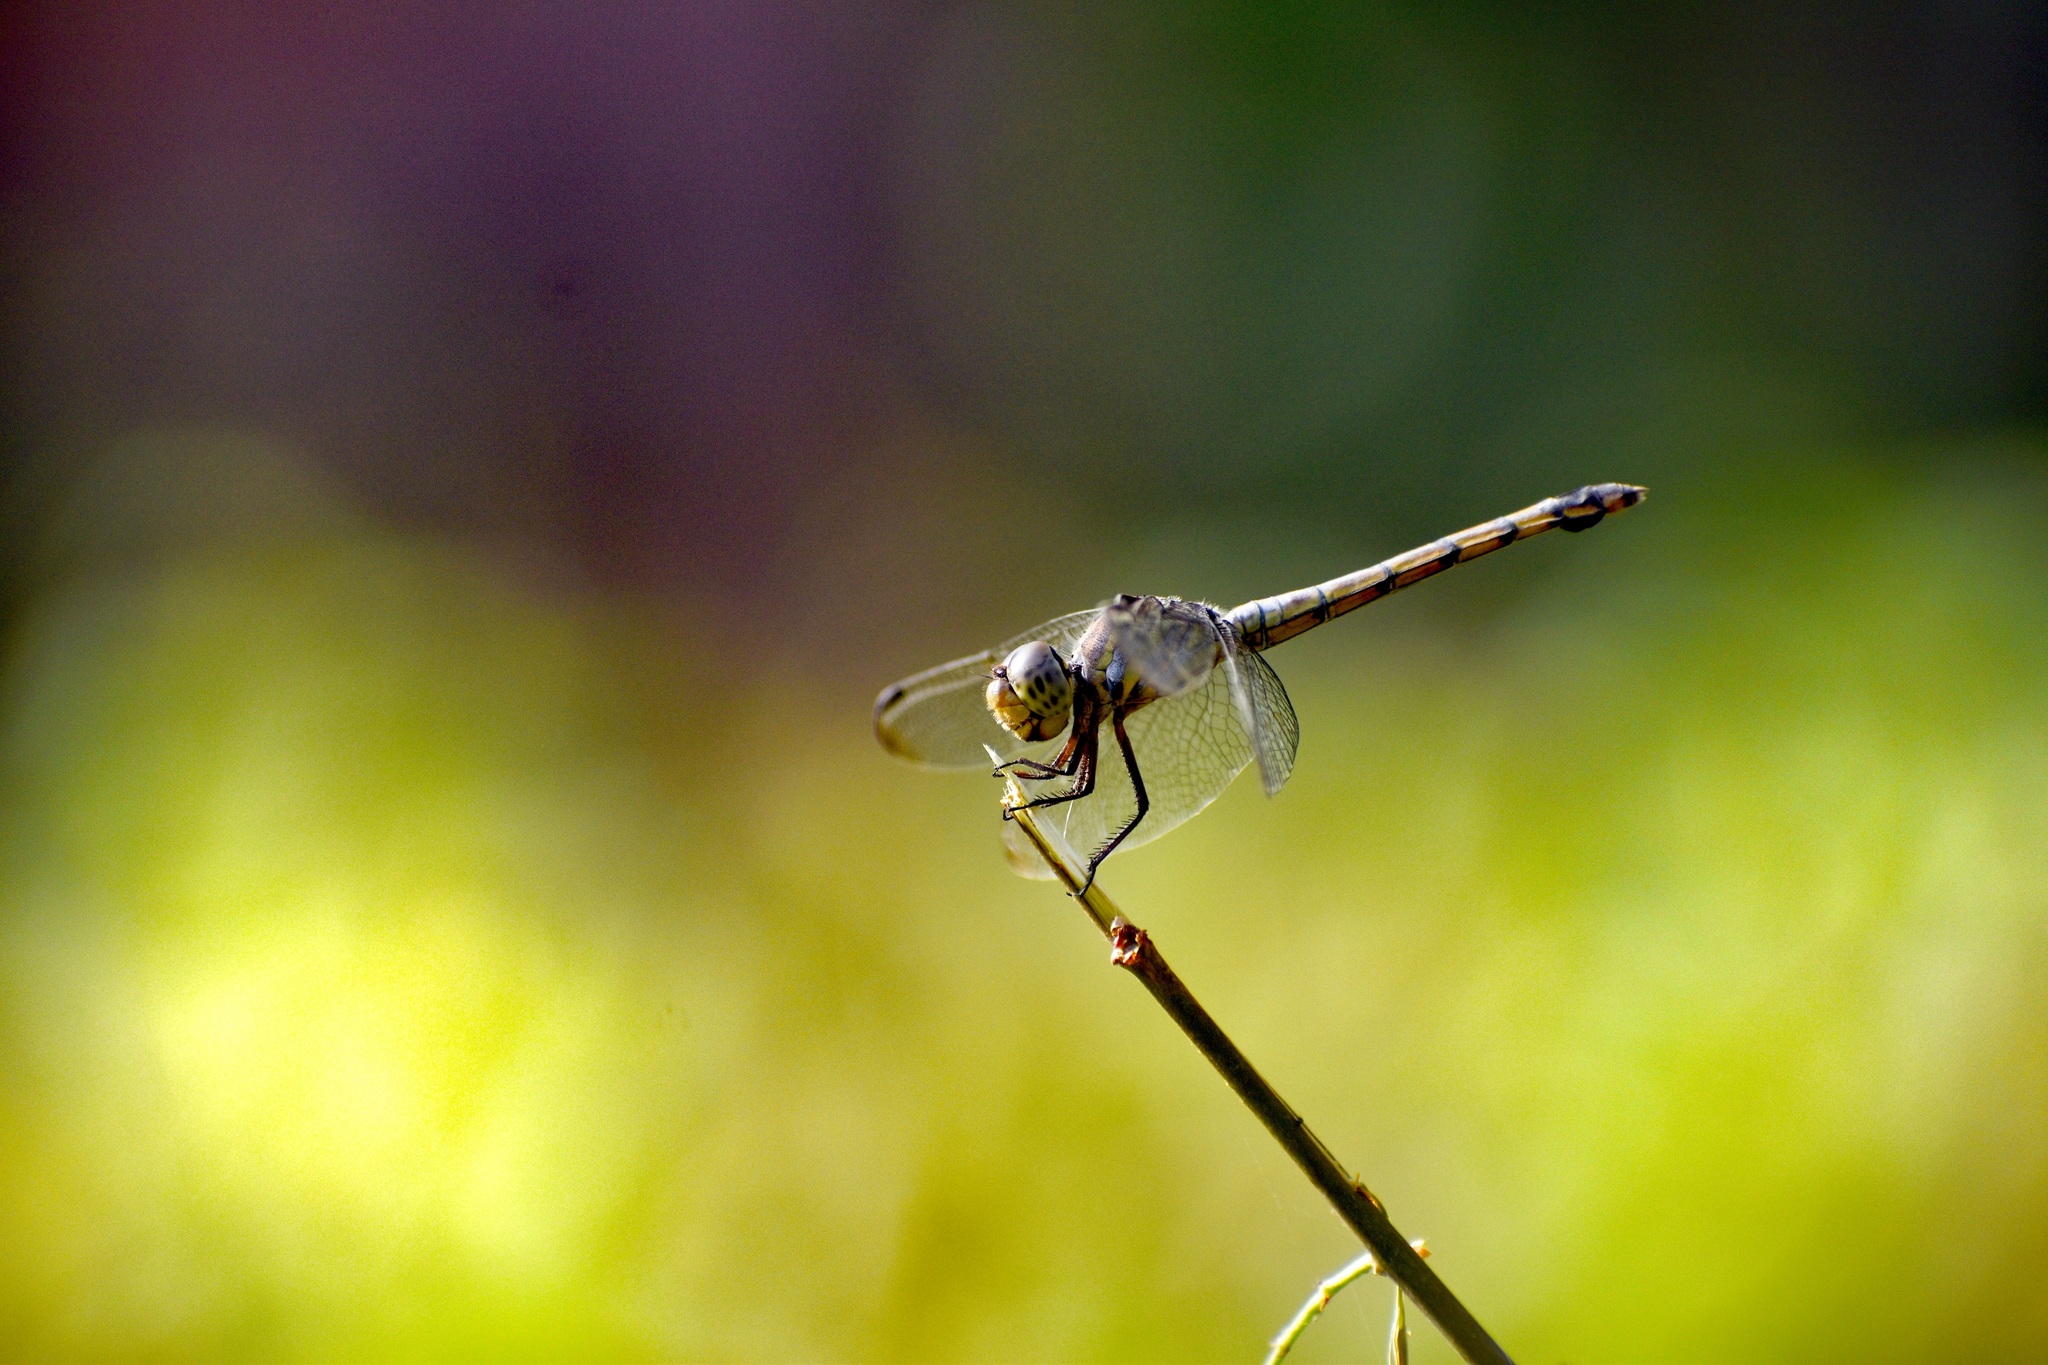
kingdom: Animalia
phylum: Arthropoda
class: Insecta
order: Odonata
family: Libellulidae
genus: Potamarcha
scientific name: Potamarcha congener
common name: Blue chaser
